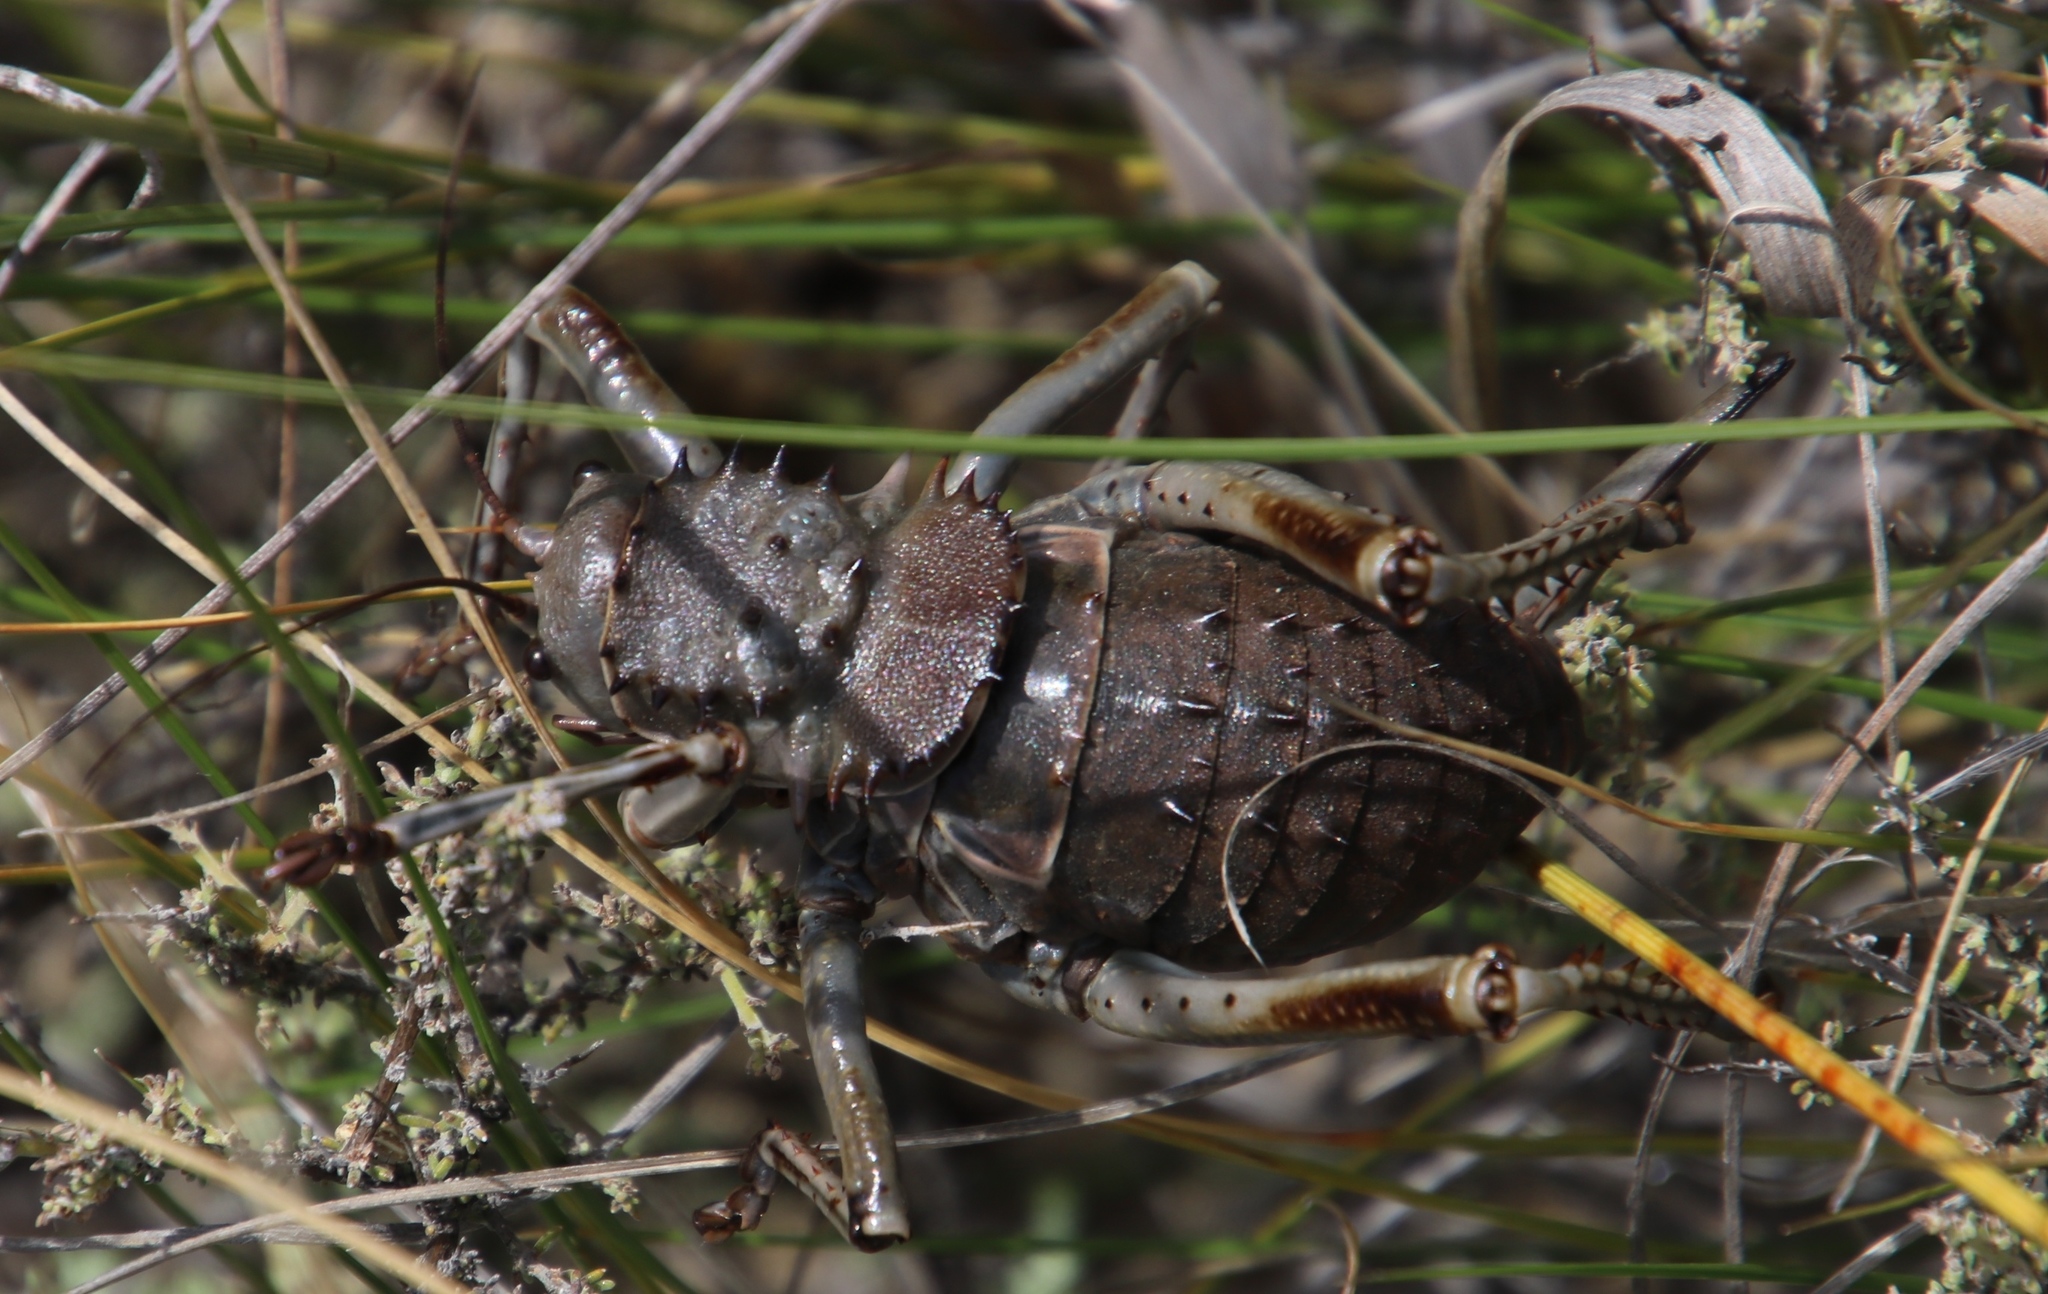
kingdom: Animalia
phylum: Arthropoda
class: Insecta
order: Orthoptera
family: Tettigoniidae
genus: Hetrodes
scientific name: Hetrodes pupus
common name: Koringkriek
